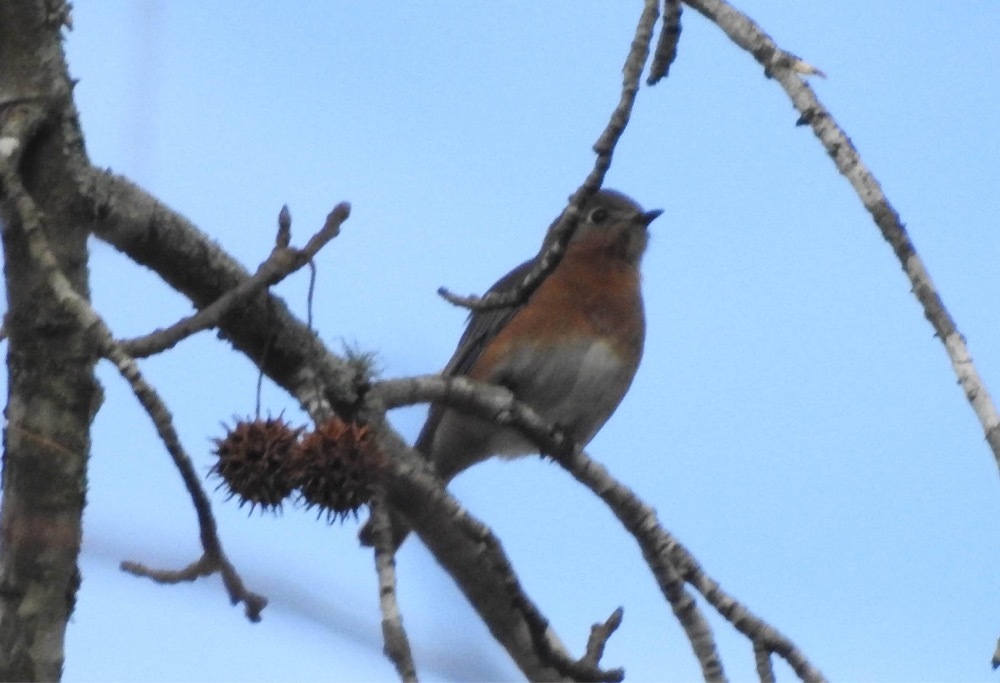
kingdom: Animalia
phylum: Chordata
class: Aves
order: Passeriformes
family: Turdidae
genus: Sialia
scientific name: Sialia sialis
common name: Eastern bluebird
